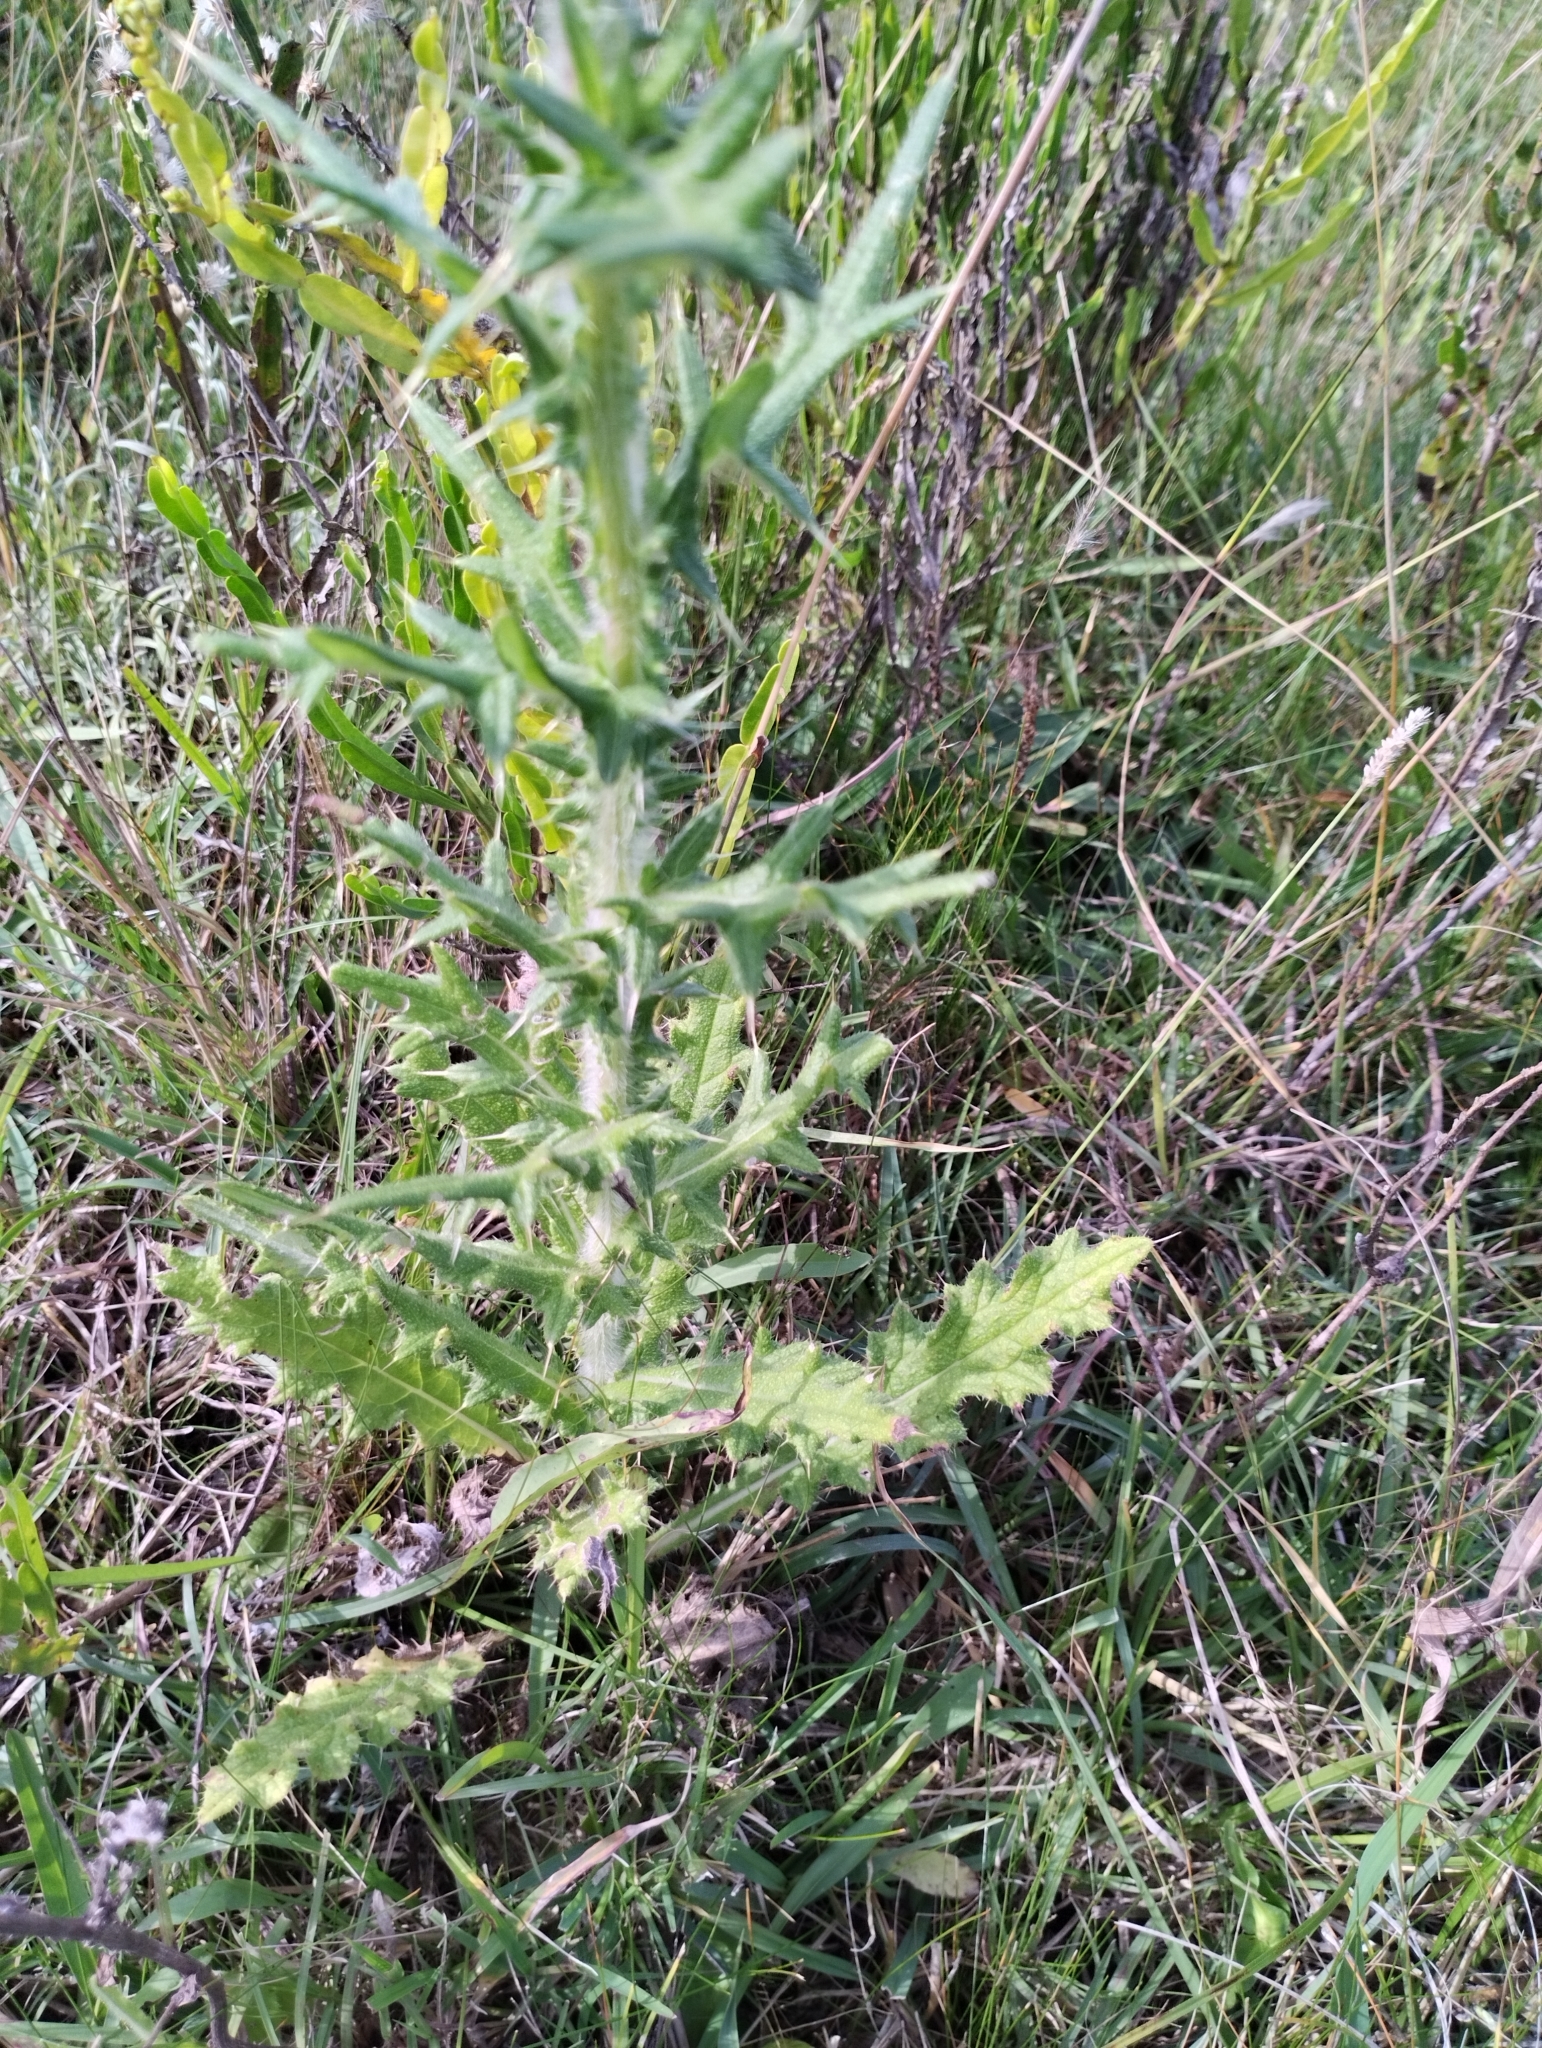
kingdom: Plantae
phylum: Tracheophyta
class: Magnoliopsida
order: Asterales
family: Asteraceae
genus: Cirsium
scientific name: Cirsium vulgare
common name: Bull thistle
